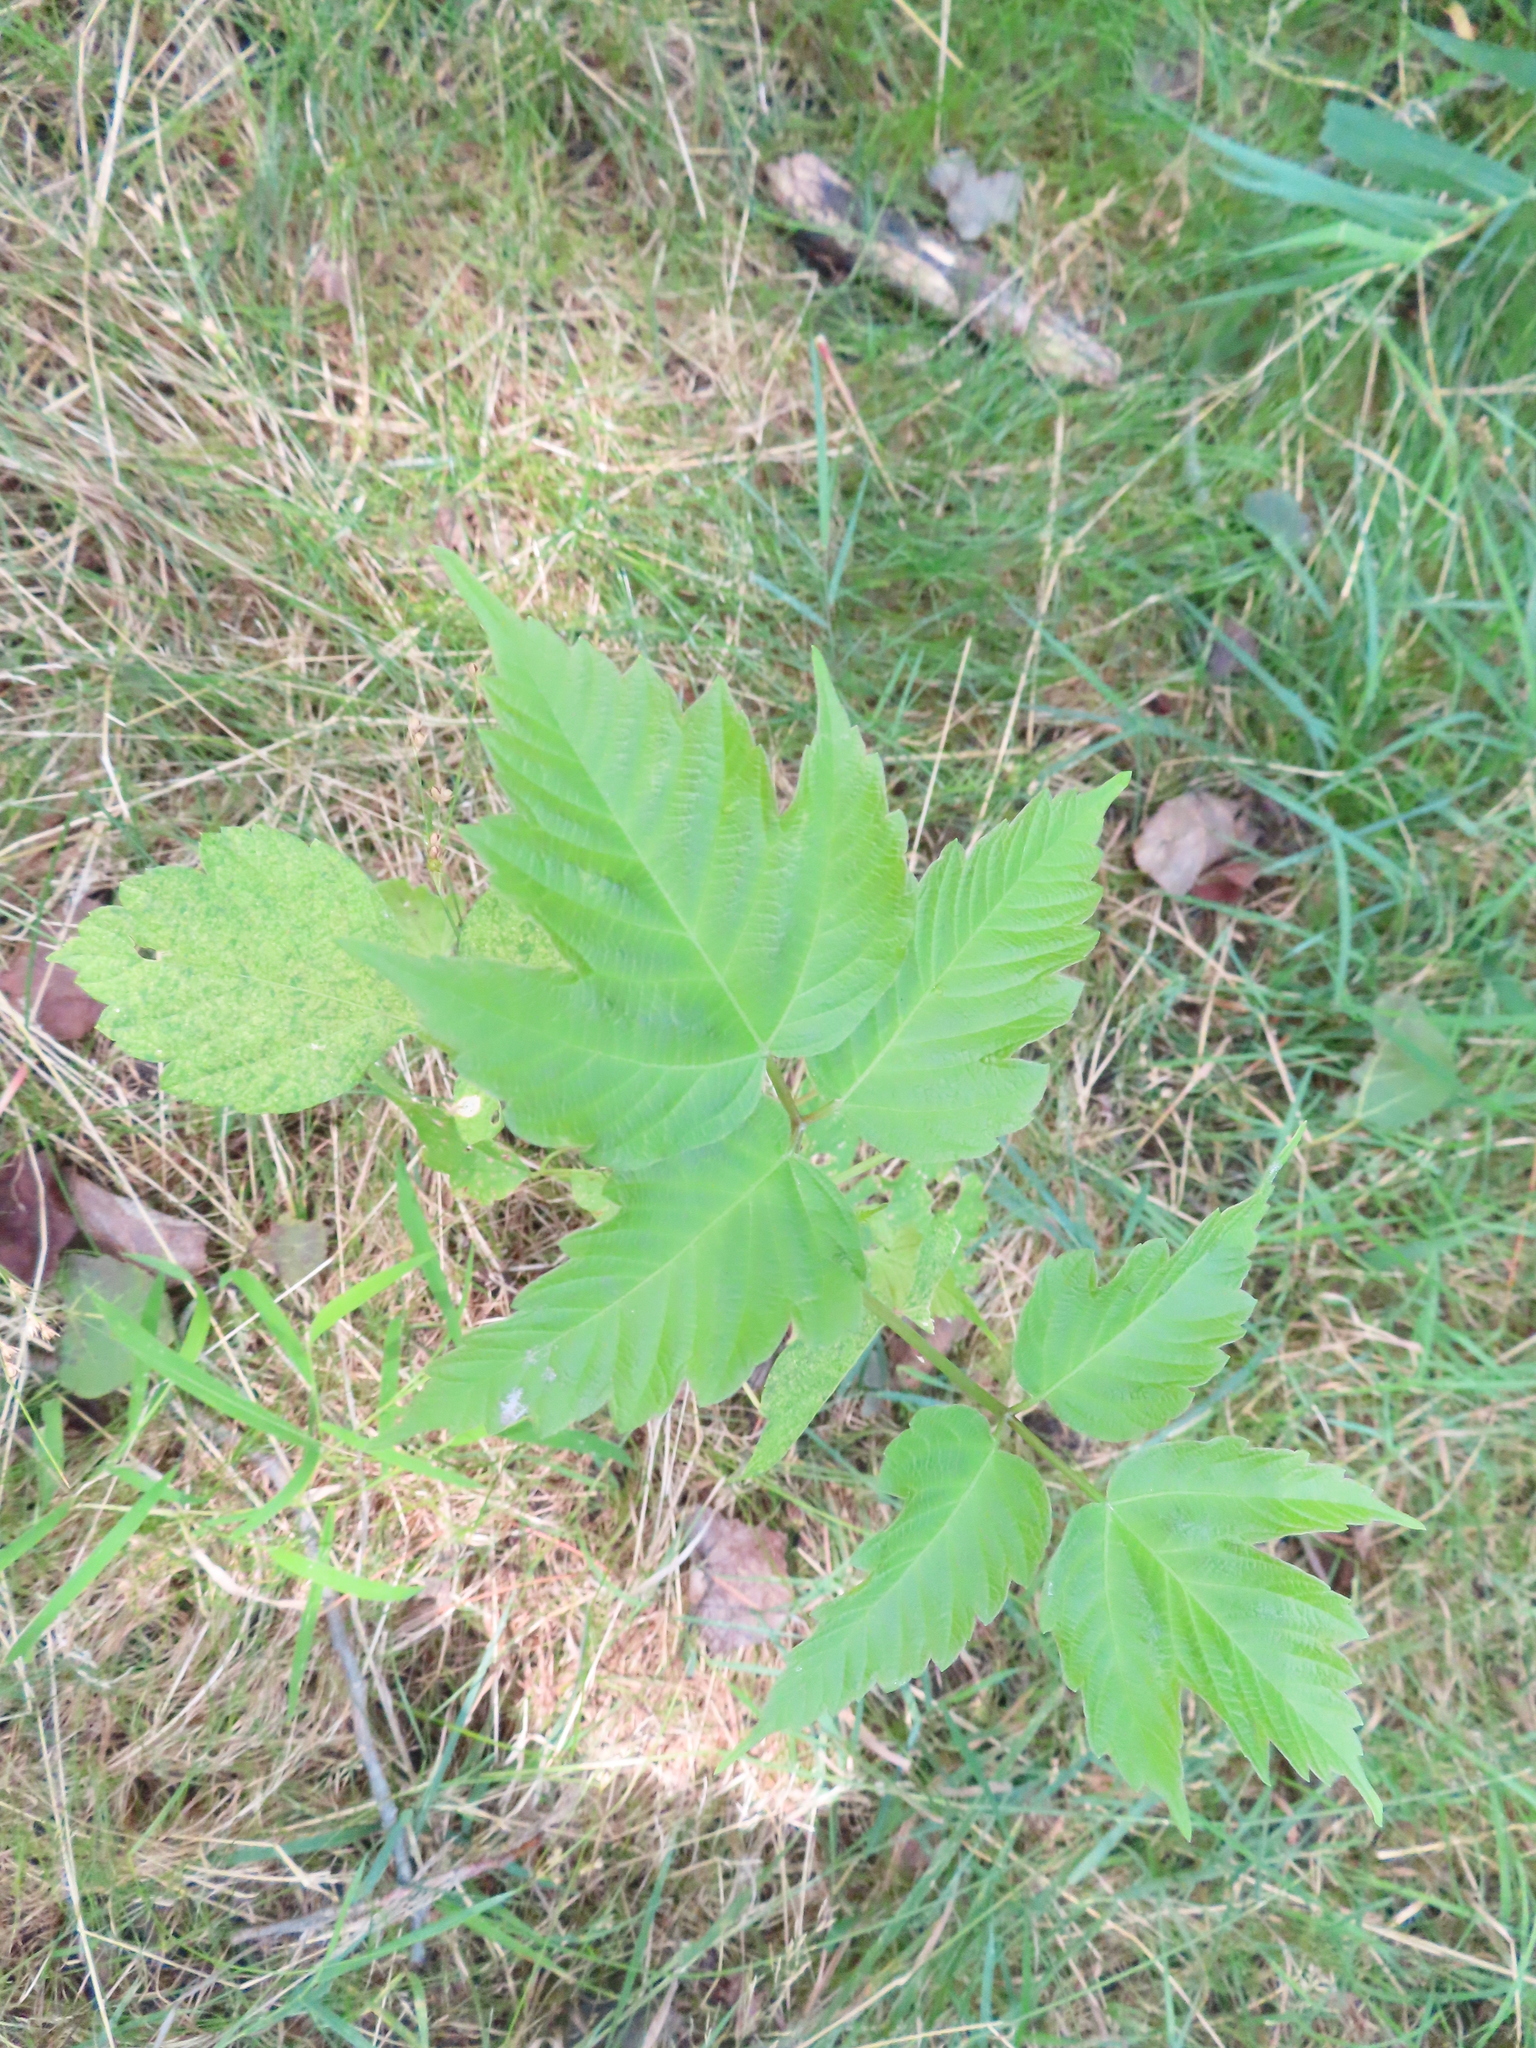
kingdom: Plantae
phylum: Tracheophyta
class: Magnoliopsida
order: Sapindales
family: Sapindaceae
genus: Acer
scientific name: Acer negundo
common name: Ashleaf maple
